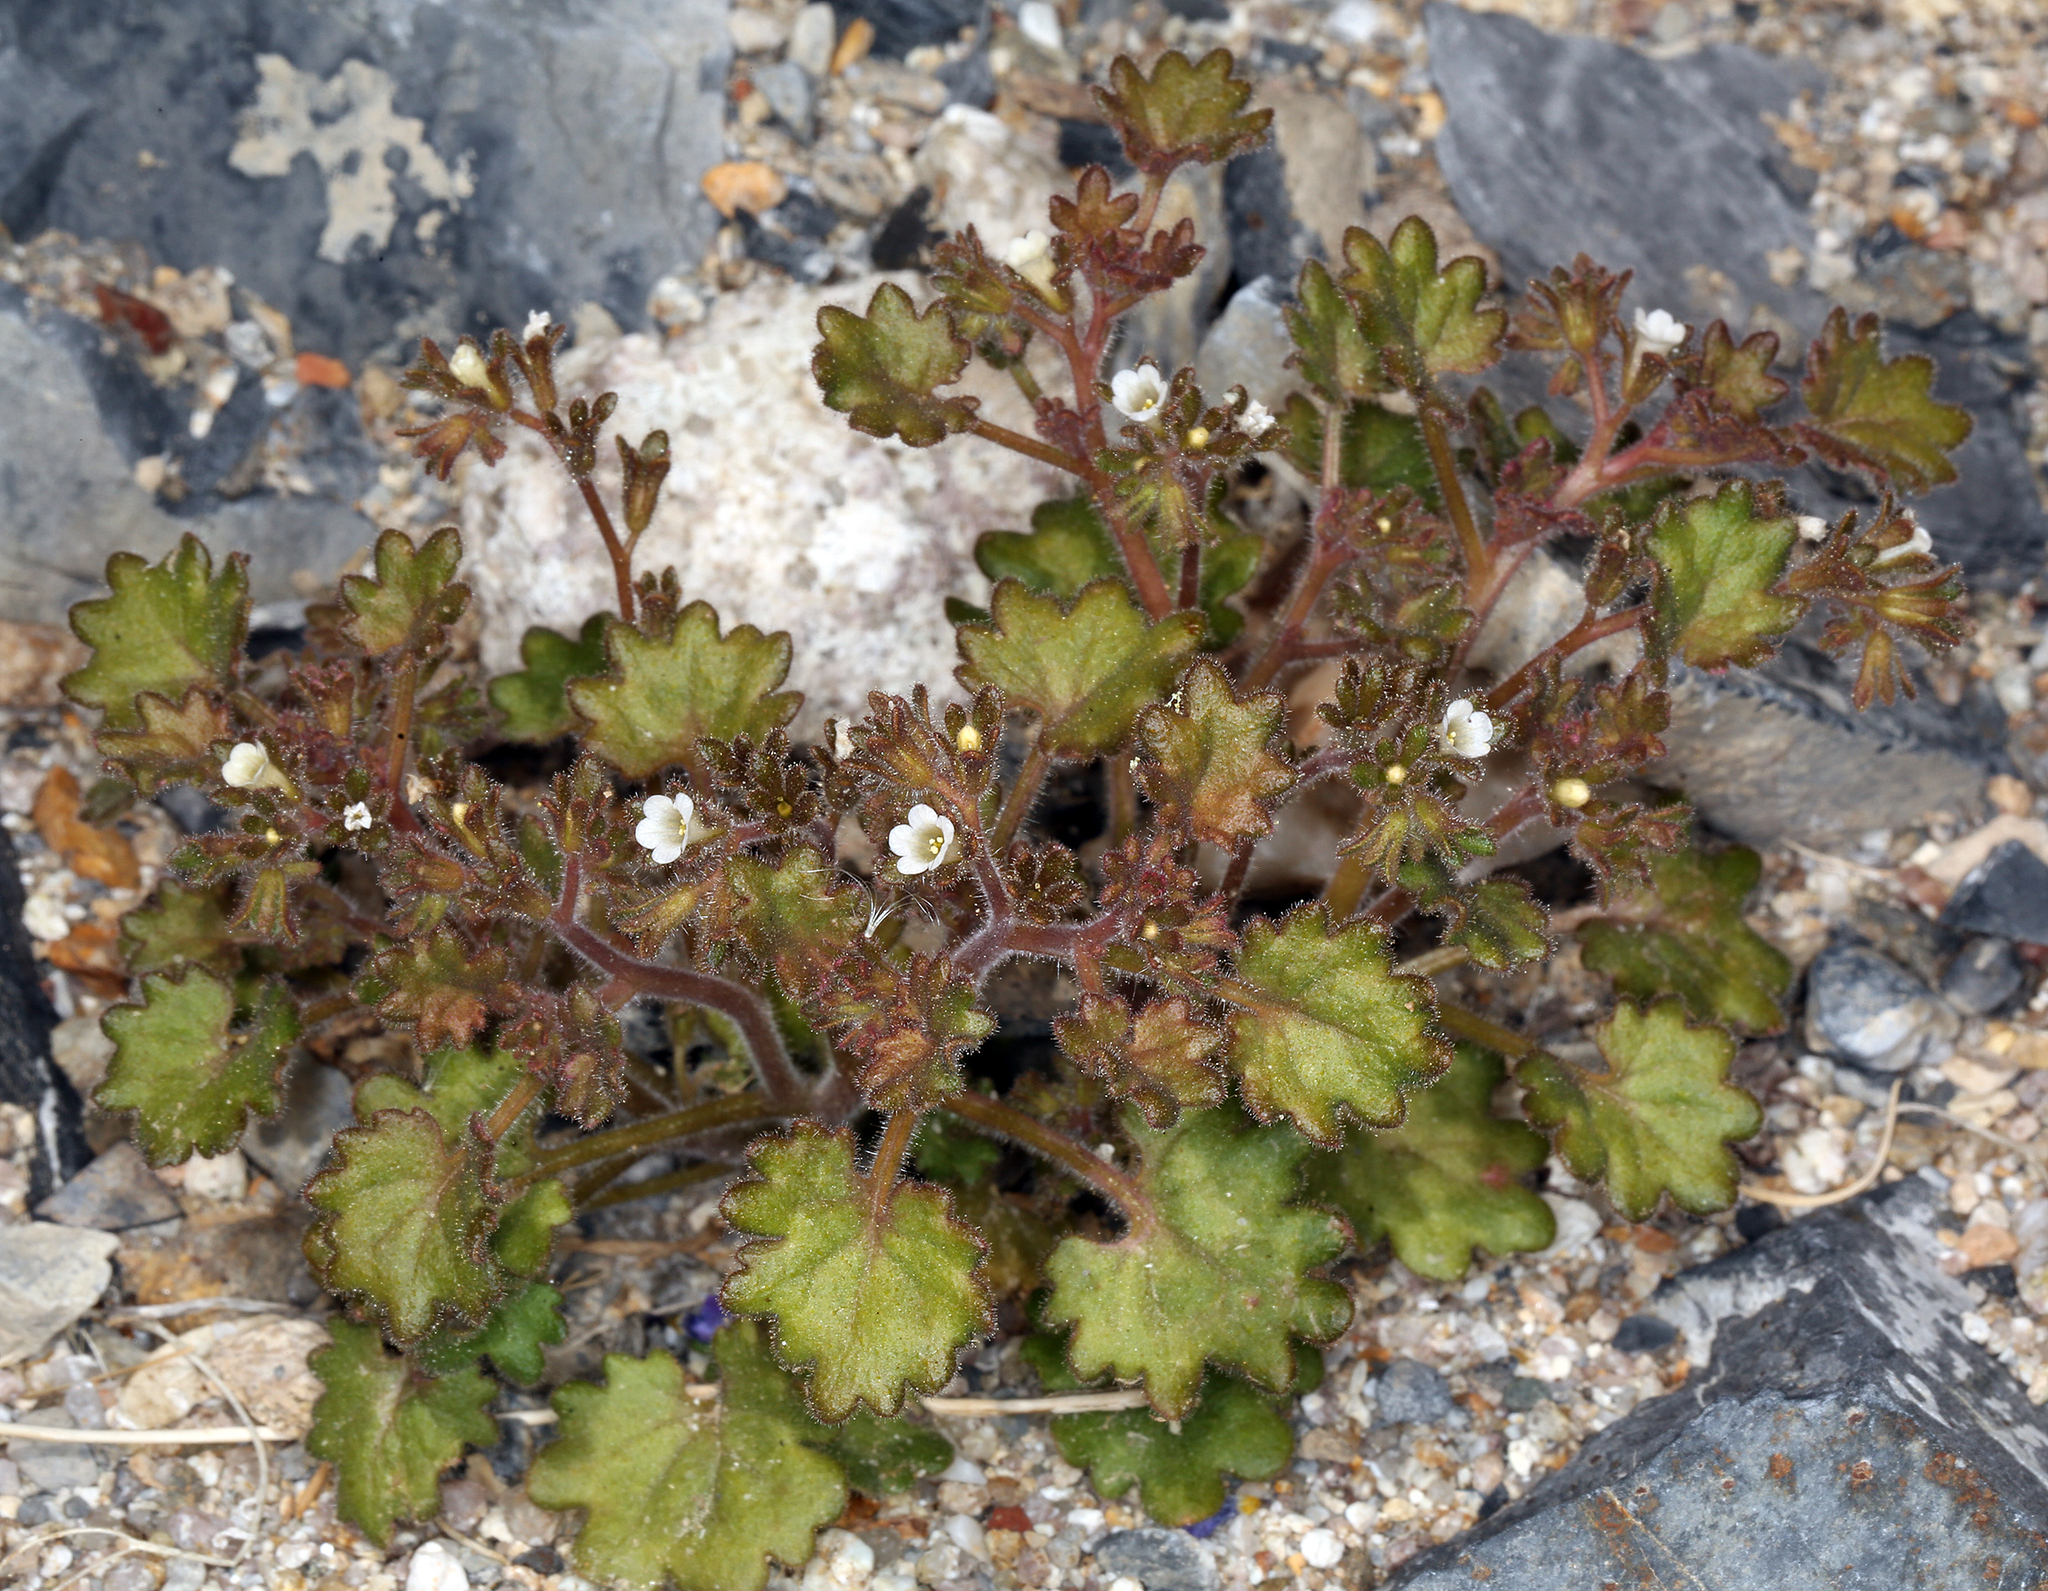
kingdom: Plantae
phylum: Tracheophyta
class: Magnoliopsida
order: Boraginales
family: Hydrophyllaceae
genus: Phacelia
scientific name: Phacelia rotundifolia
